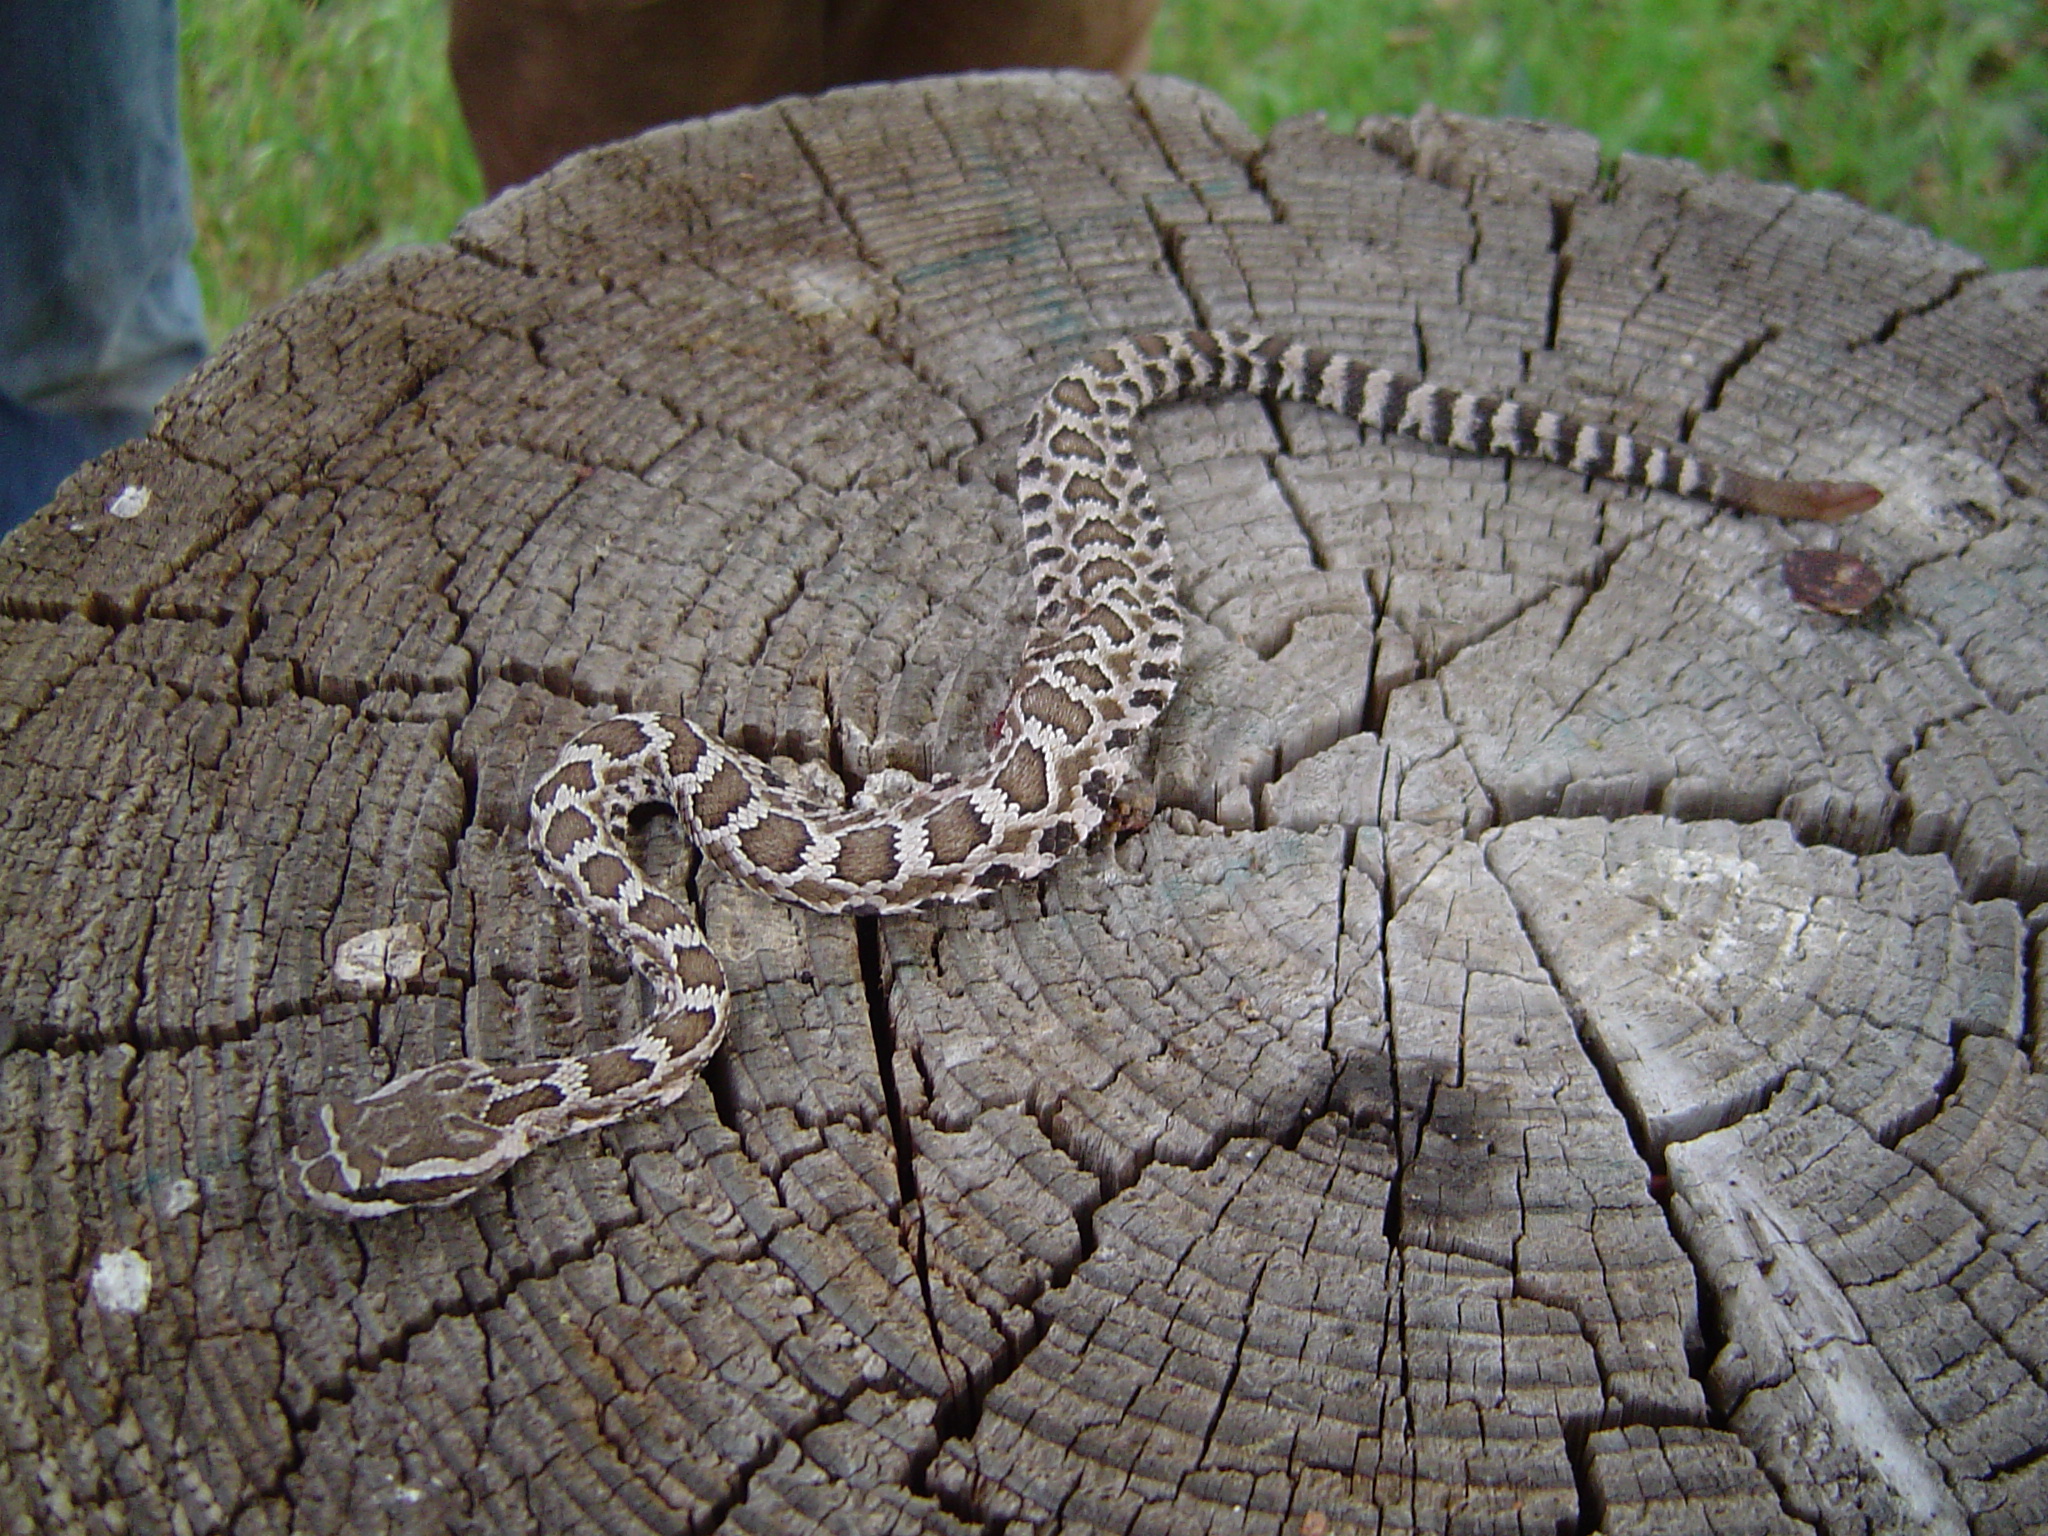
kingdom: Animalia
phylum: Chordata
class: Squamata
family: Viperidae
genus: Crotalus
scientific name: Crotalus oreganus
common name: Abyssus
